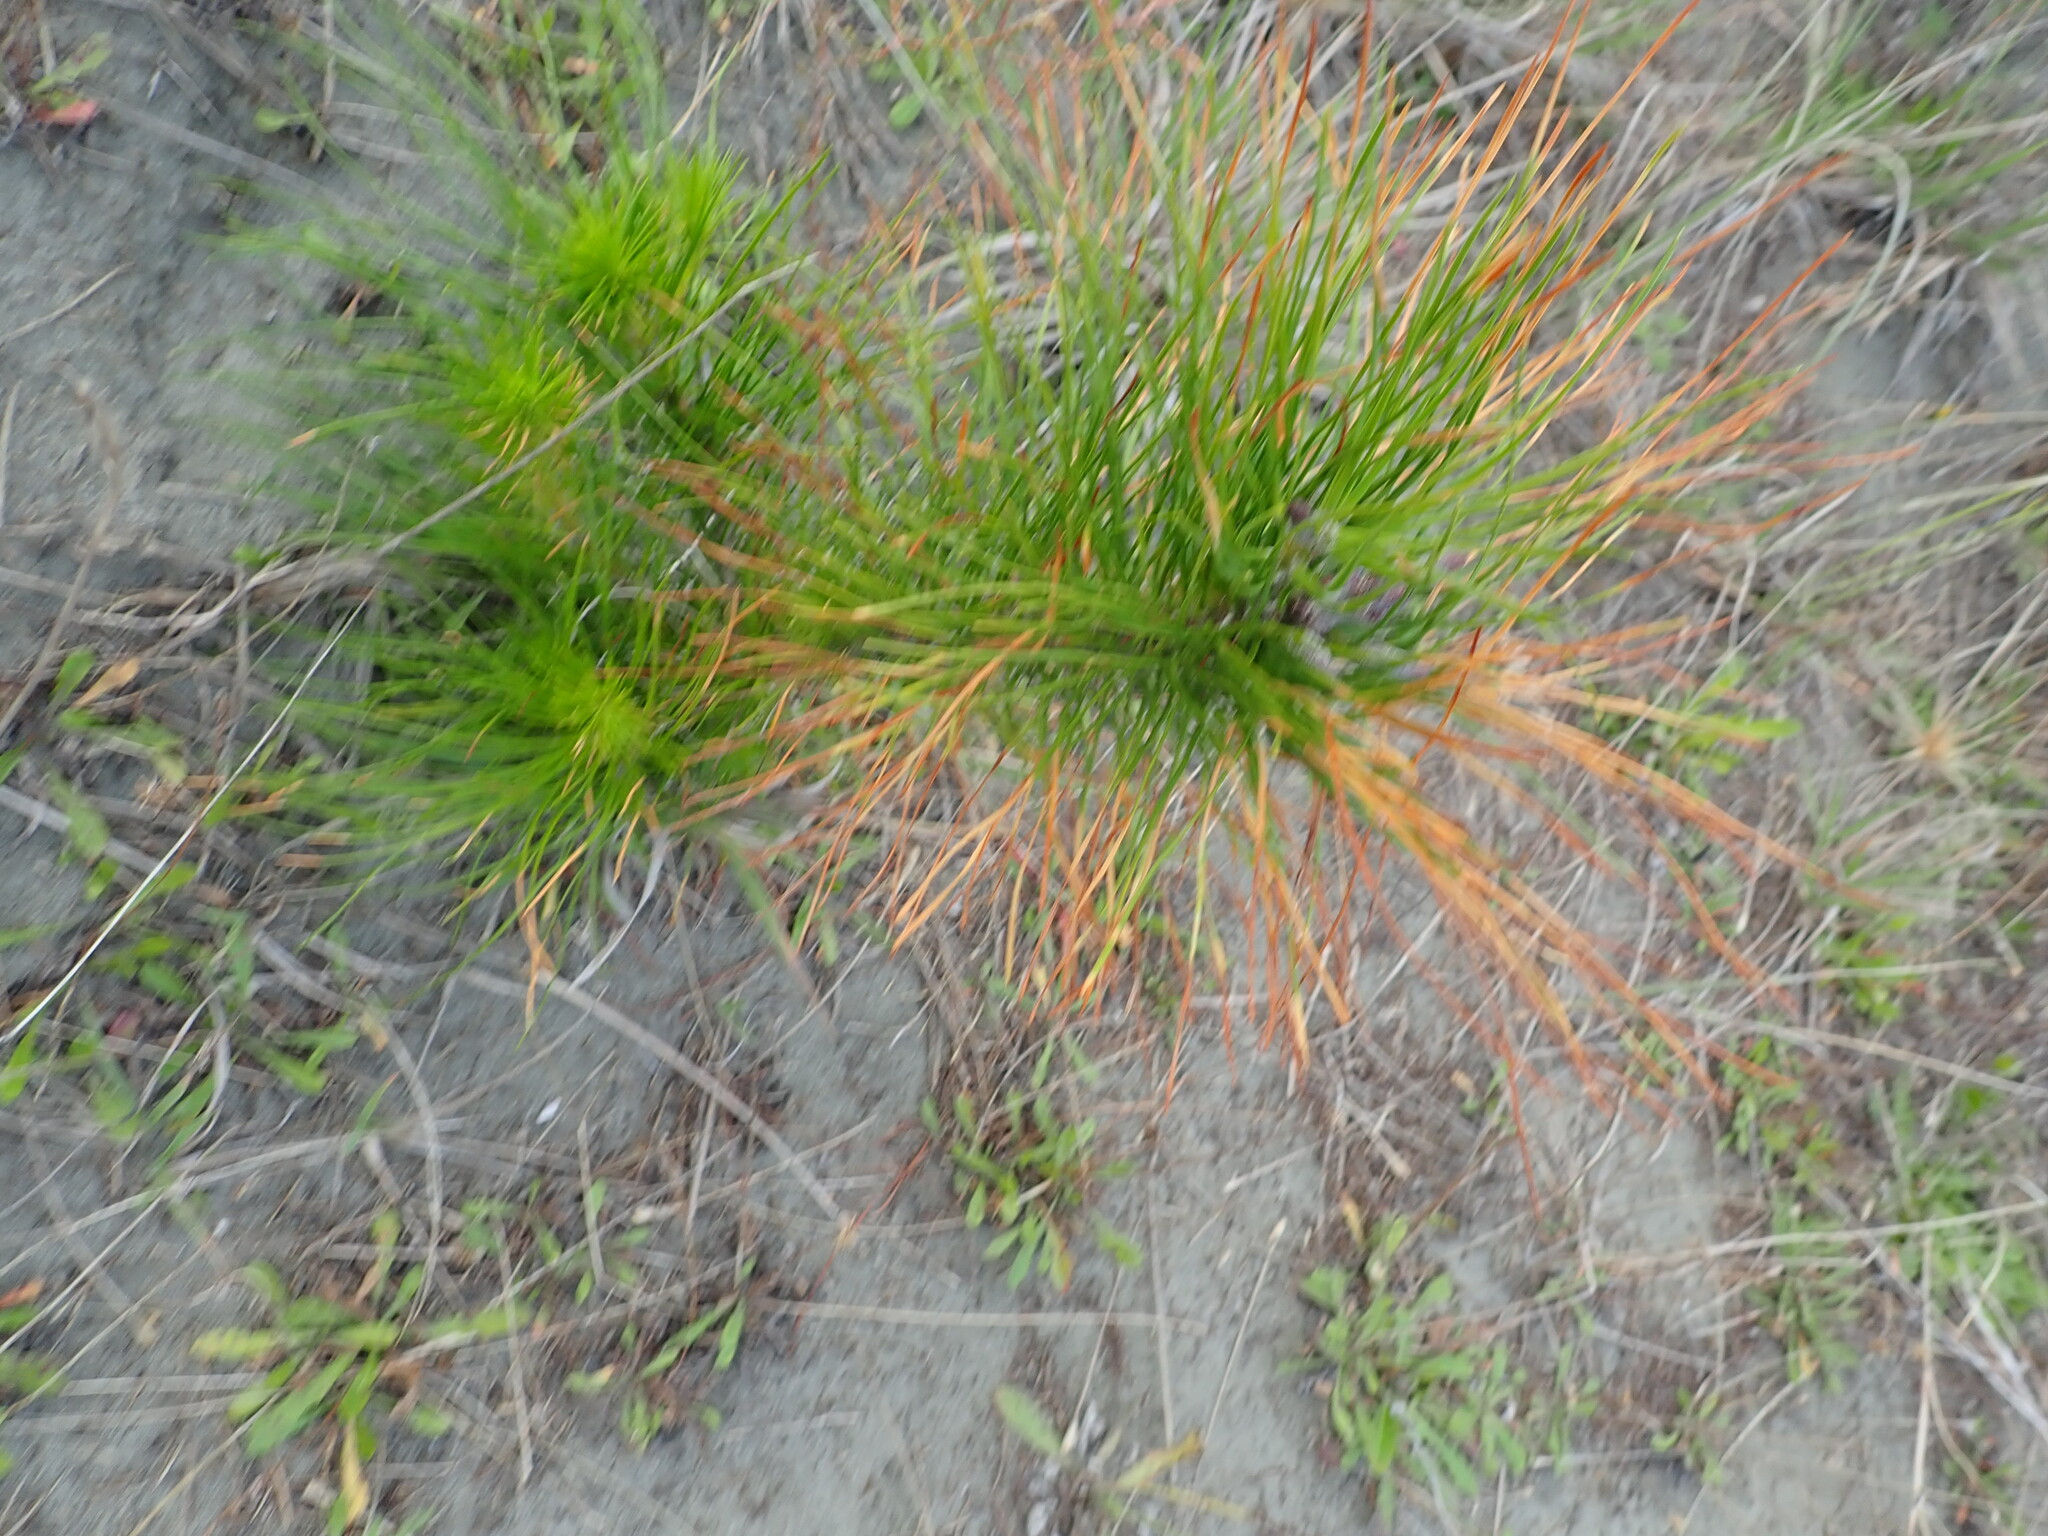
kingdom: Plantae
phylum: Tracheophyta
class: Pinopsida
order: Pinales
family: Pinaceae
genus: Pinus
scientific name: Pinus radiata
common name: Monterey pine
